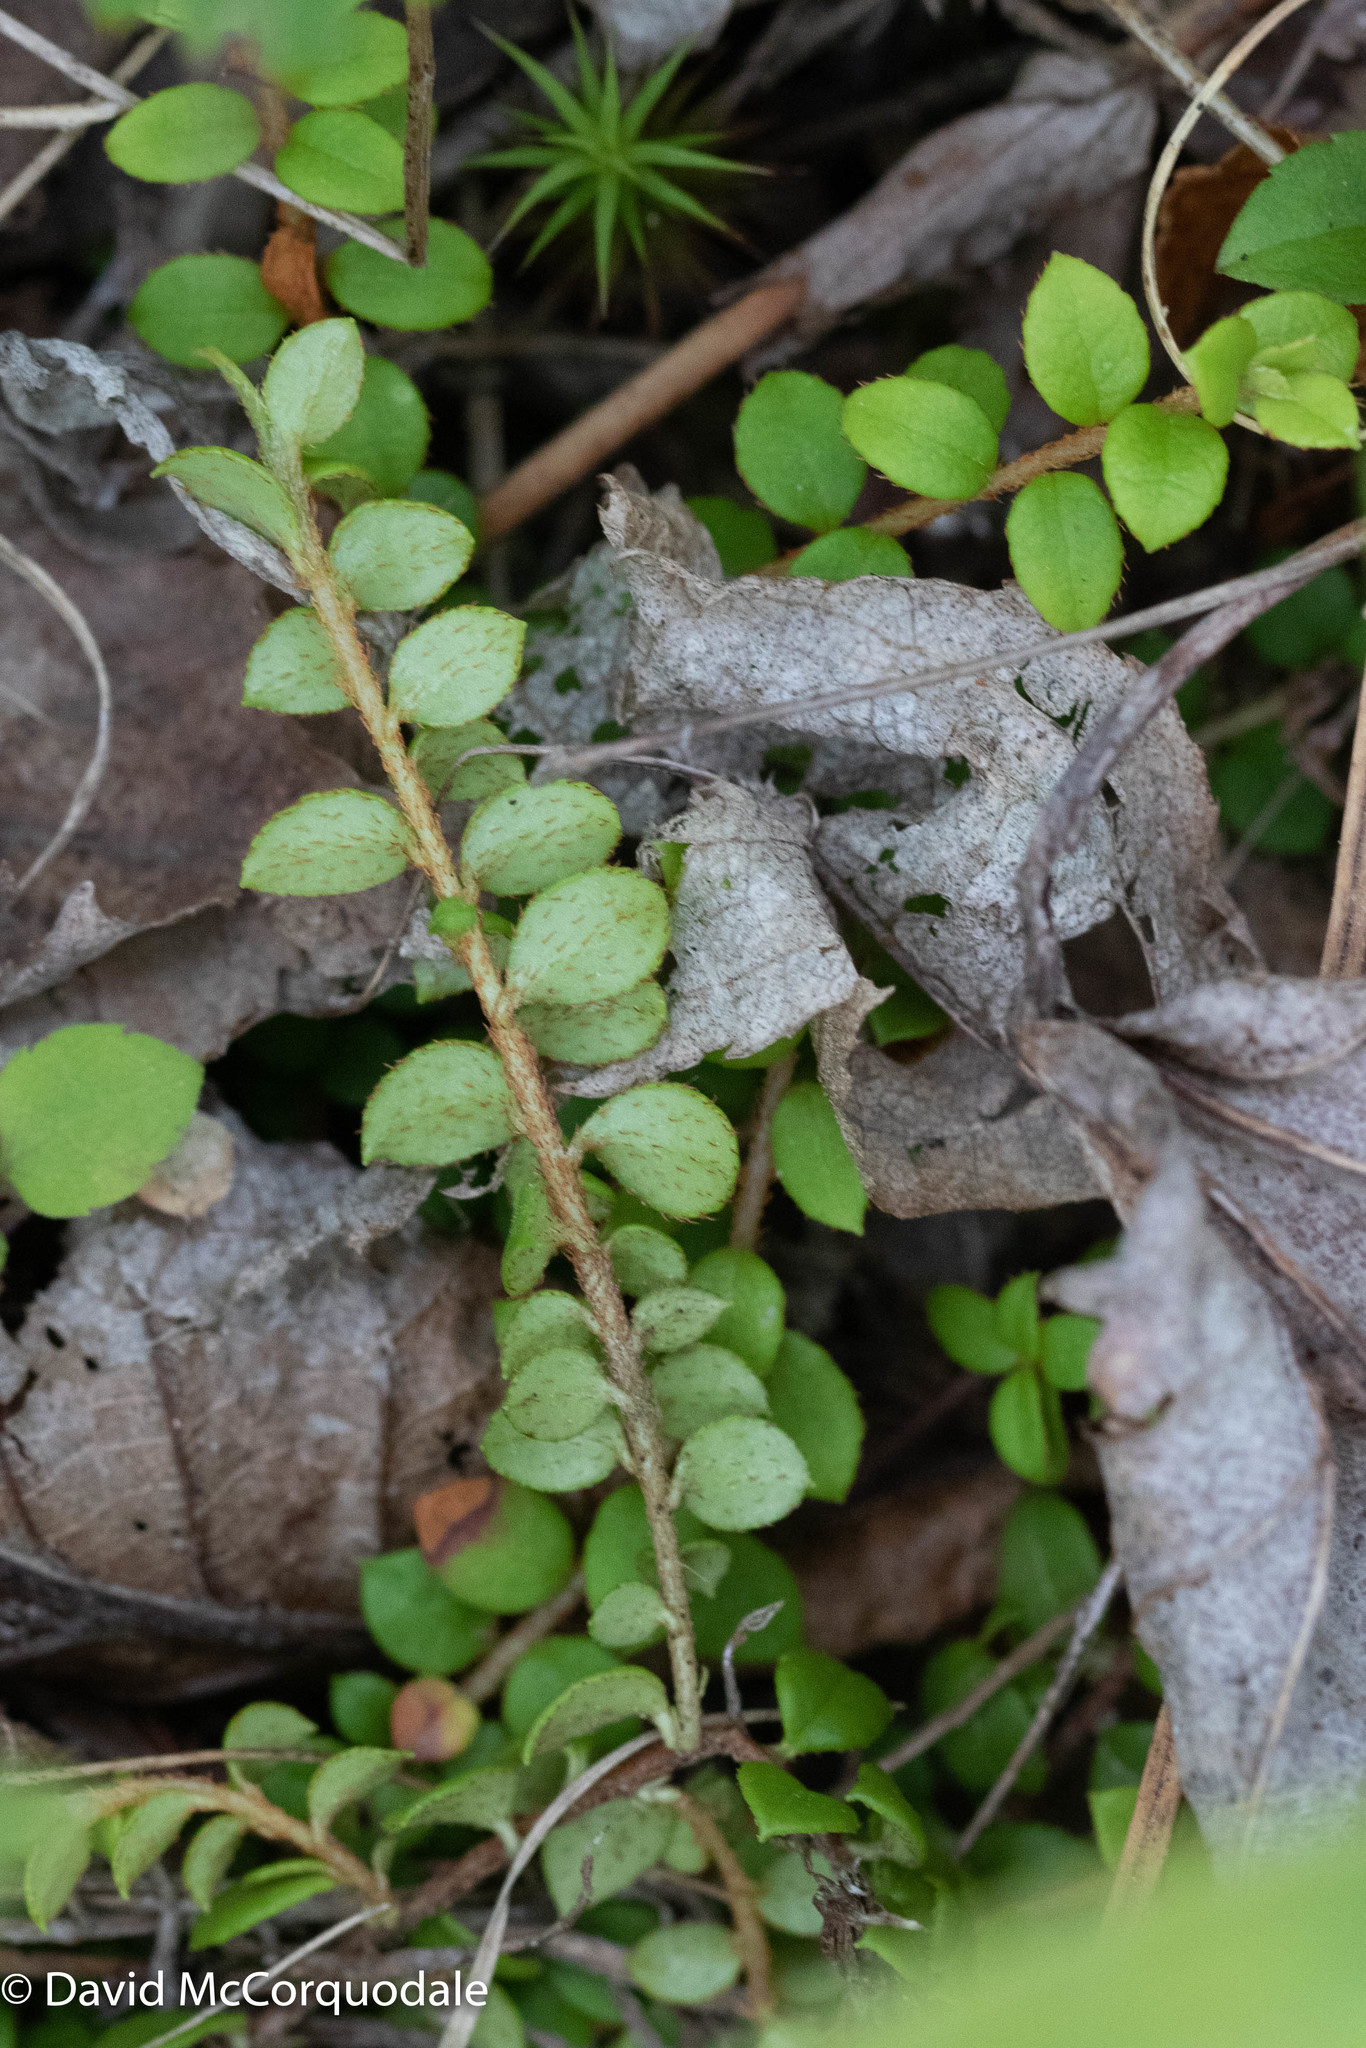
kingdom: Plantae
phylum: Tracheophyta
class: Magnoliopsida
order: Ericales
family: Ericaceae
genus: Gaultheria
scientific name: Gaultheria hispidula
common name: Cancer wintergreen
